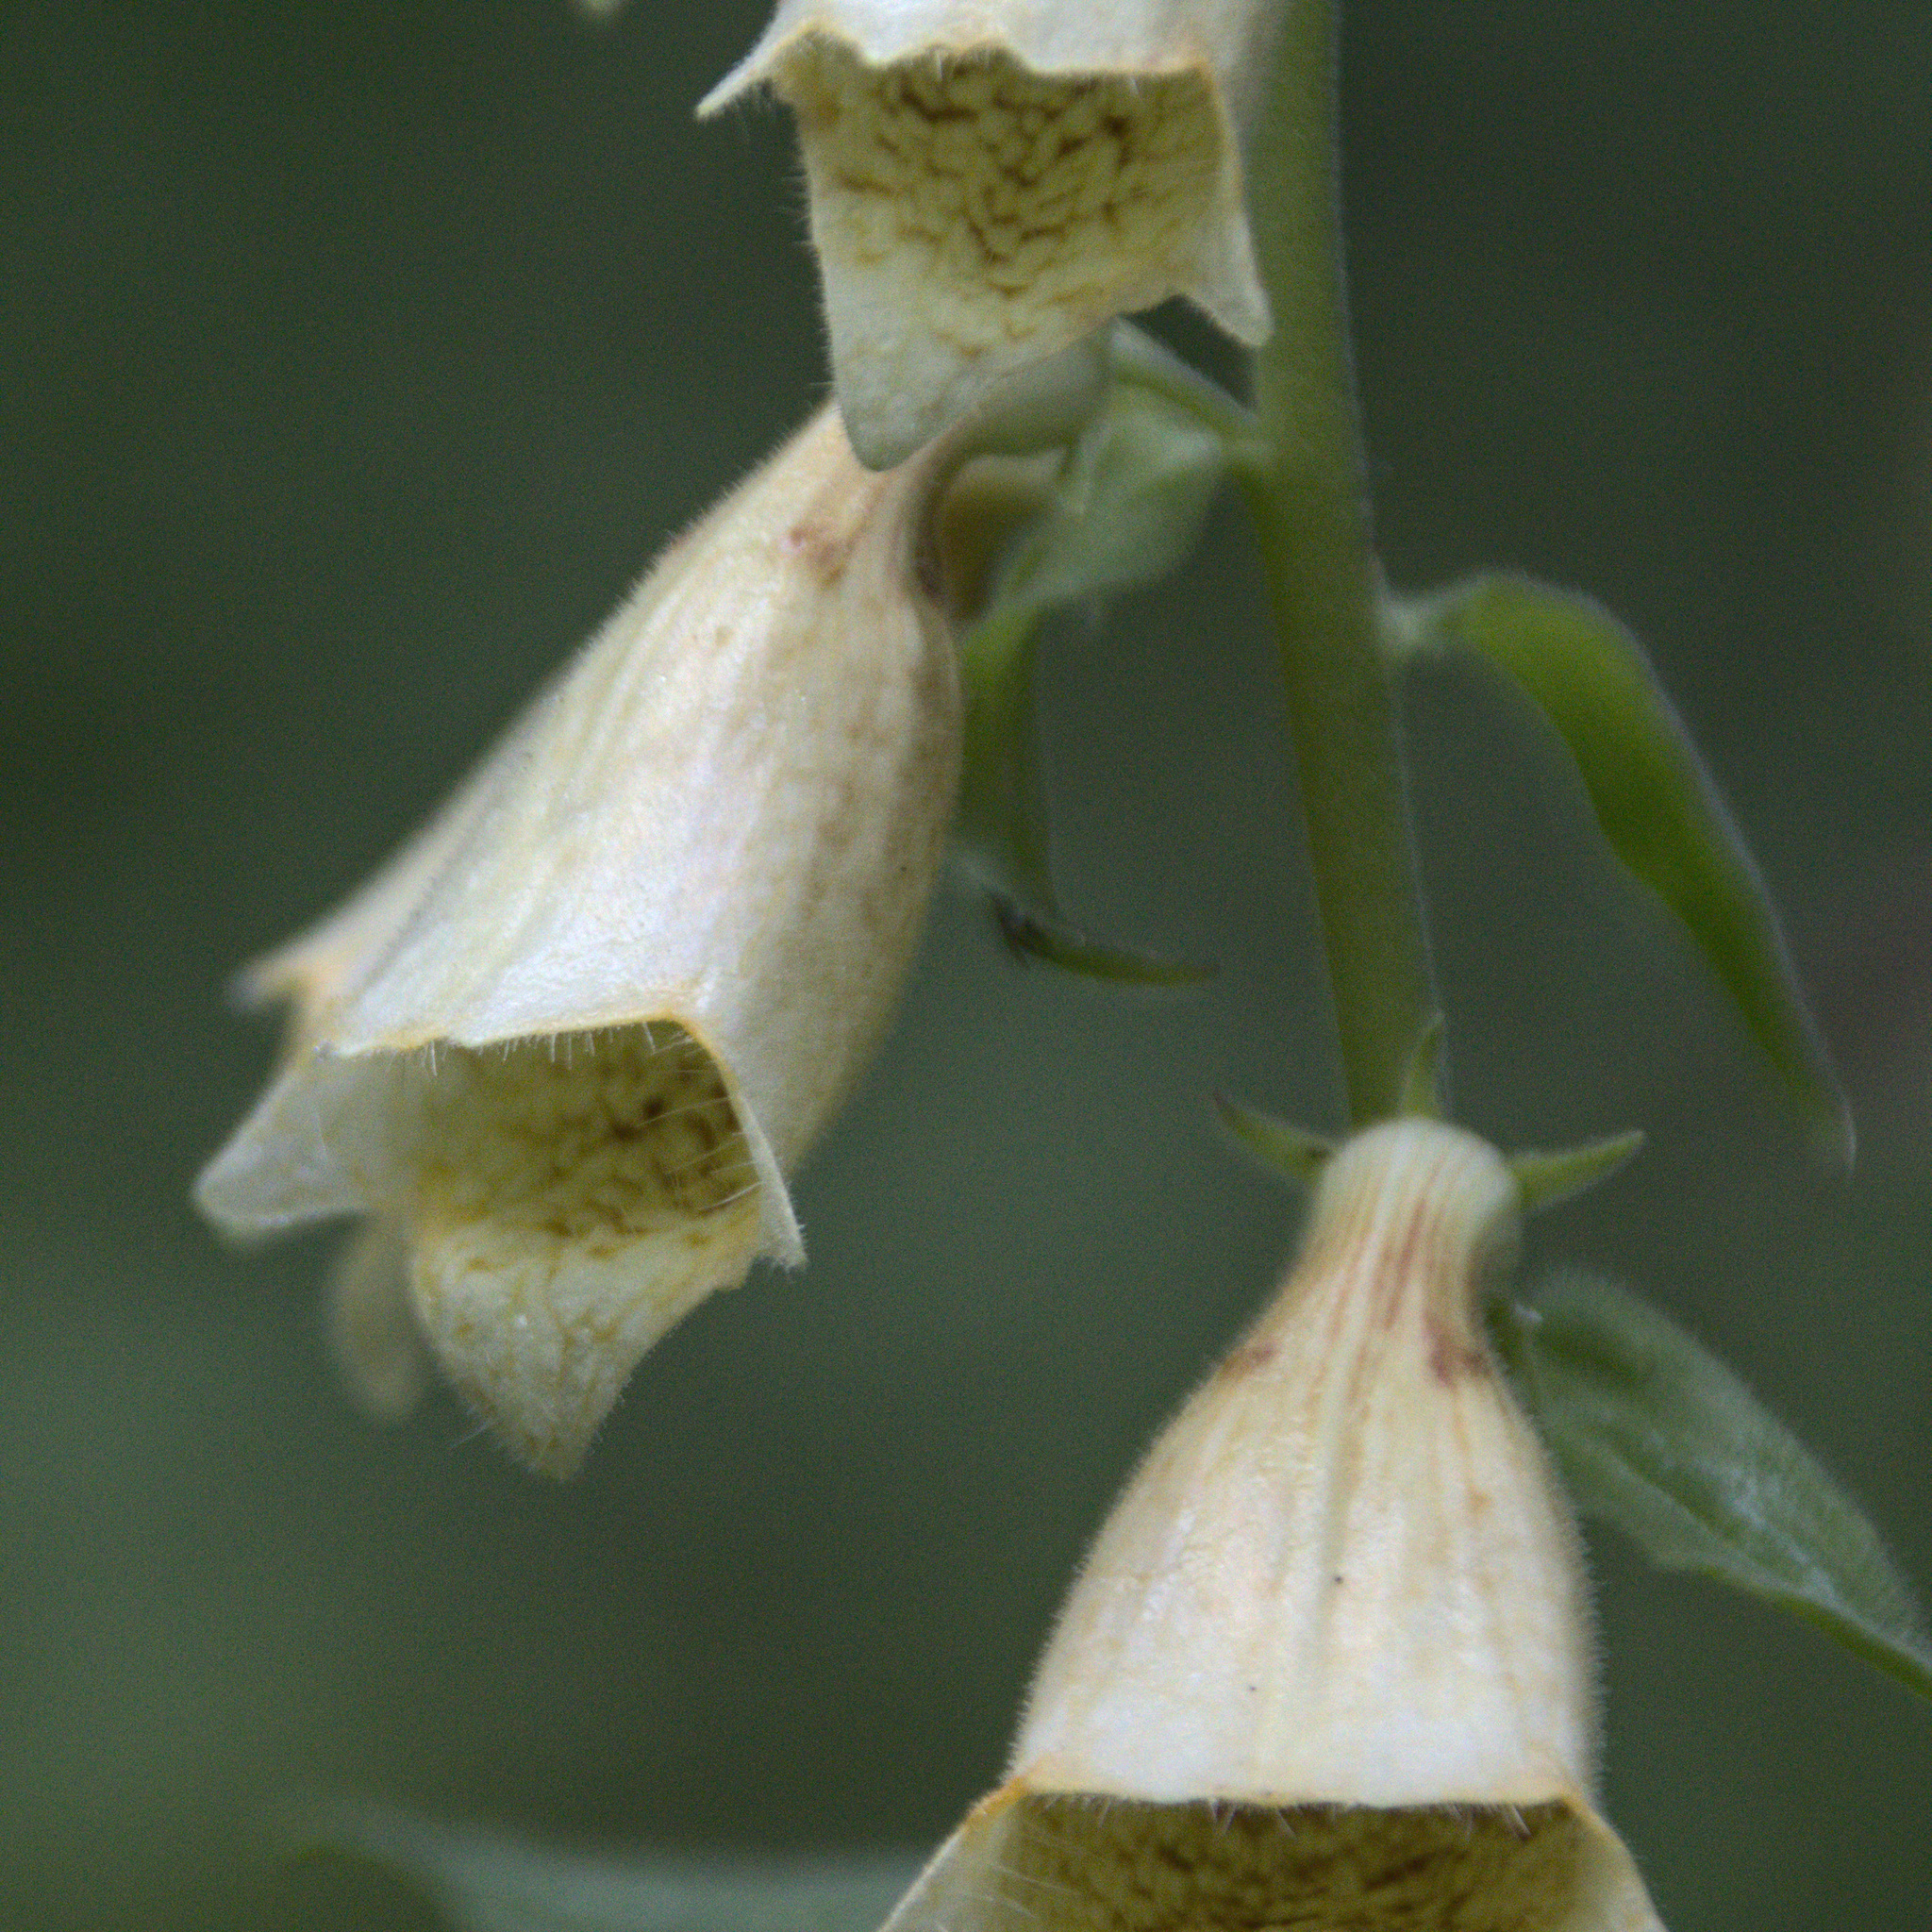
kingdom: Plantae
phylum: Tracheophyta
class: Magnoliopsida
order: Lamiales
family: Plantaginaceae
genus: Digitalis
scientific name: Digitalis grandiflora
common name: Yellow foxglove
